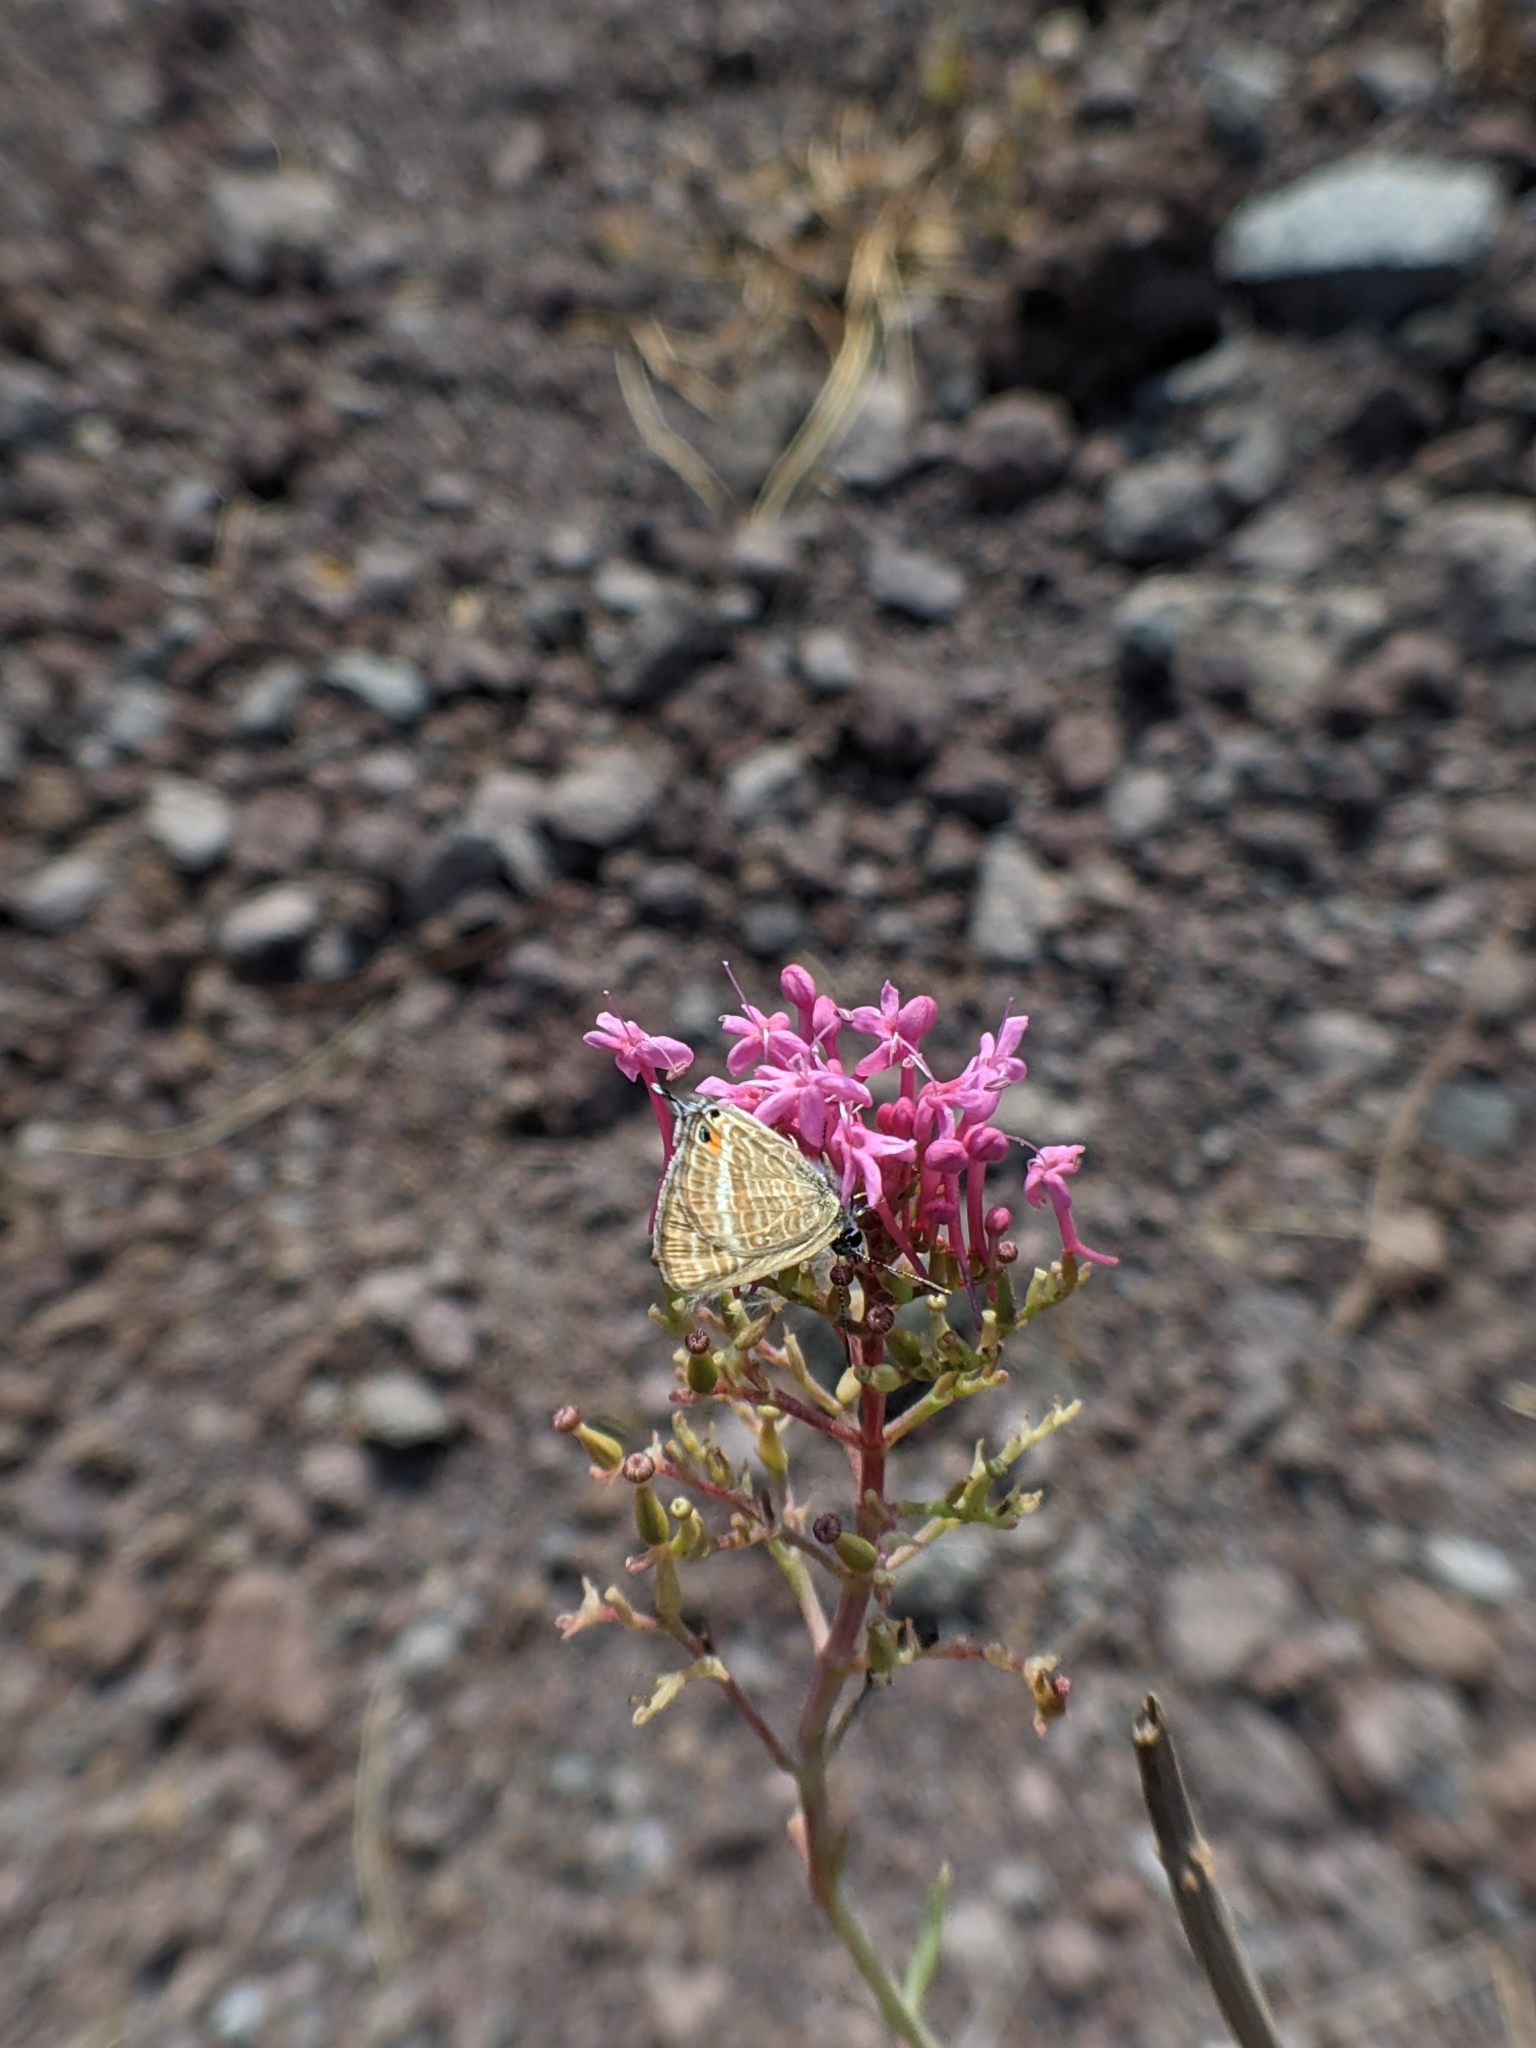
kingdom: Animalia
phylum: Arthropoda
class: Insecta
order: Lepidoptera
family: Lycaenidae
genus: Lampides
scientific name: Lampides boeticus
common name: Long-tailed blue
